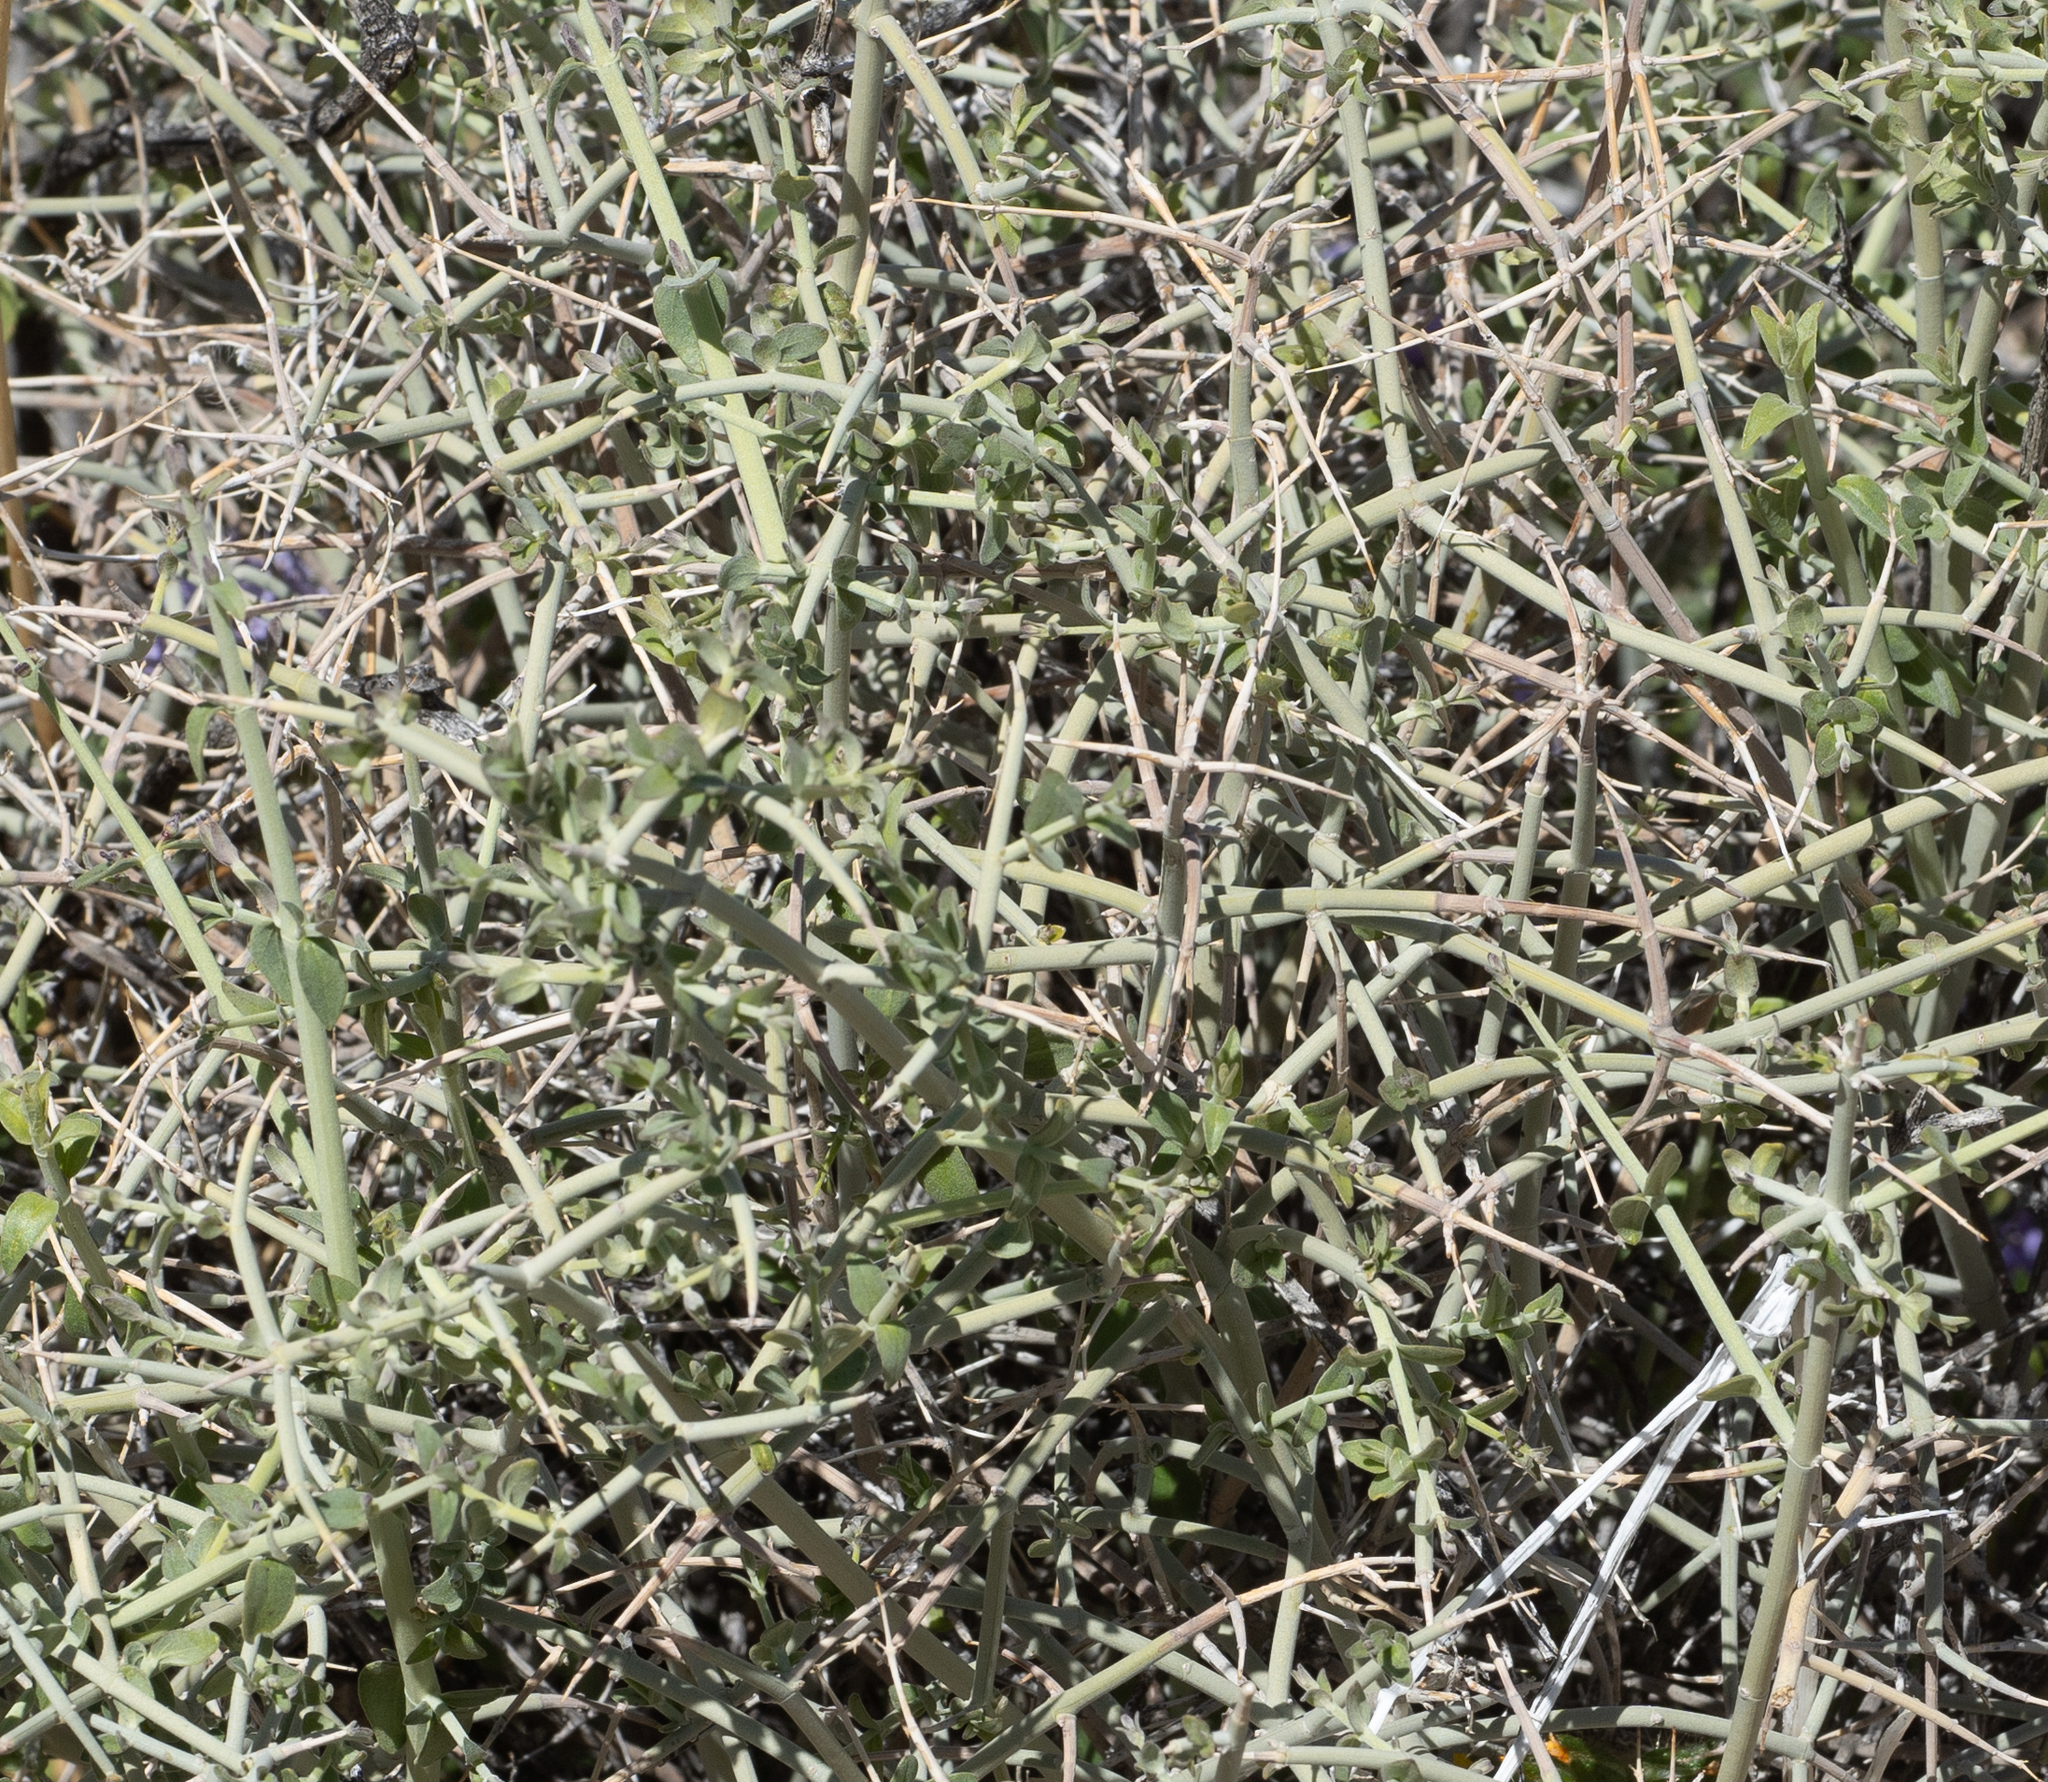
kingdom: Plantae
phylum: Tracheophyta
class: Magnoliopsida
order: Lamiales
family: Lamiaceae
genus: Scutellaria
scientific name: Scutellaria mexicana
